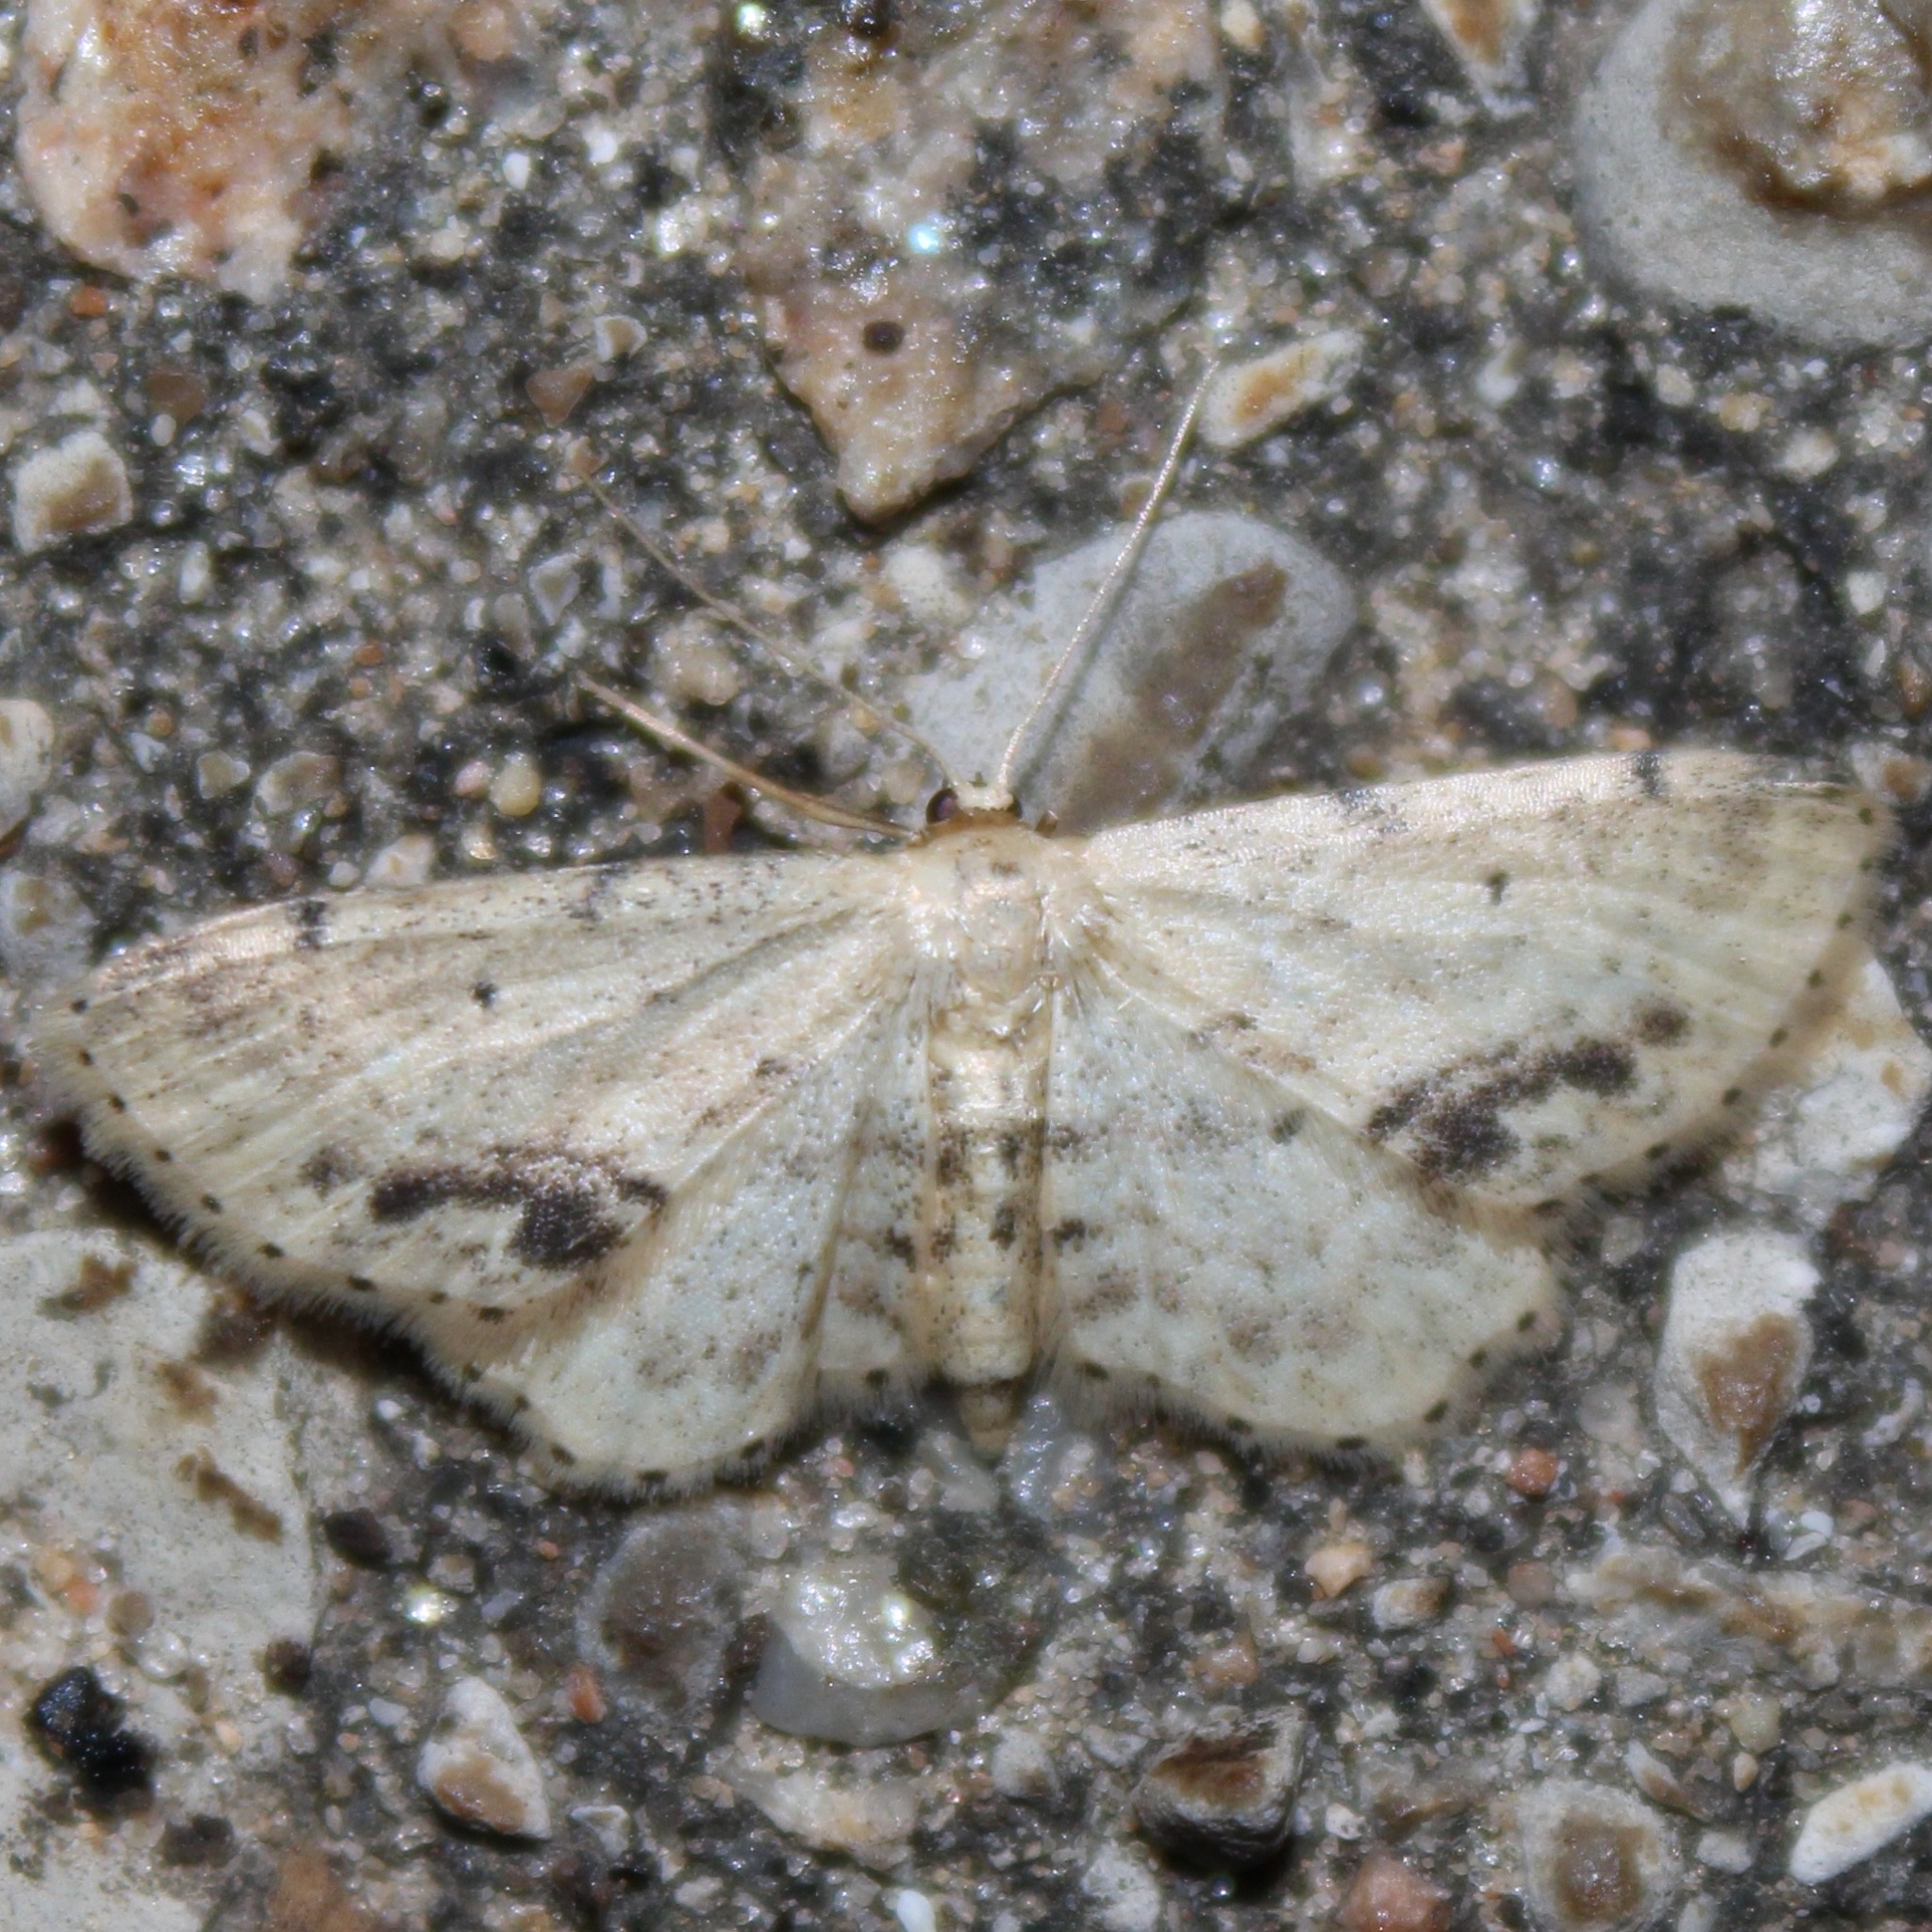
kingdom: Animalia
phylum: Arthropoda
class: Insecta
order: Lepidoptera
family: Geometridae
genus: Idaea
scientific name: Idaea dimidiata
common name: Single-dotted wave
